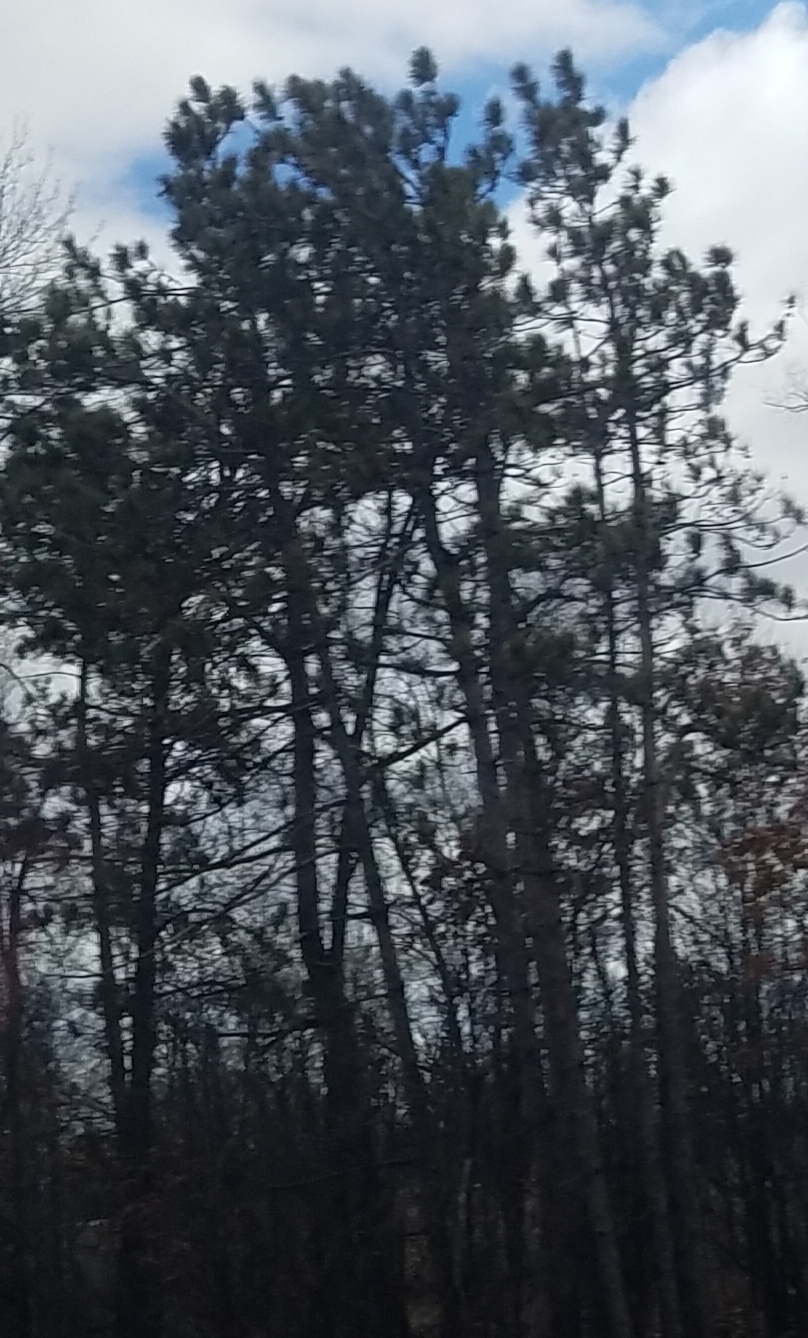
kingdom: Plantae
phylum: Tracheophyta
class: Pinopsida
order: Pinales
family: Pinaceae
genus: Pinus
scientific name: Pinus resinosa
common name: Norway pine
